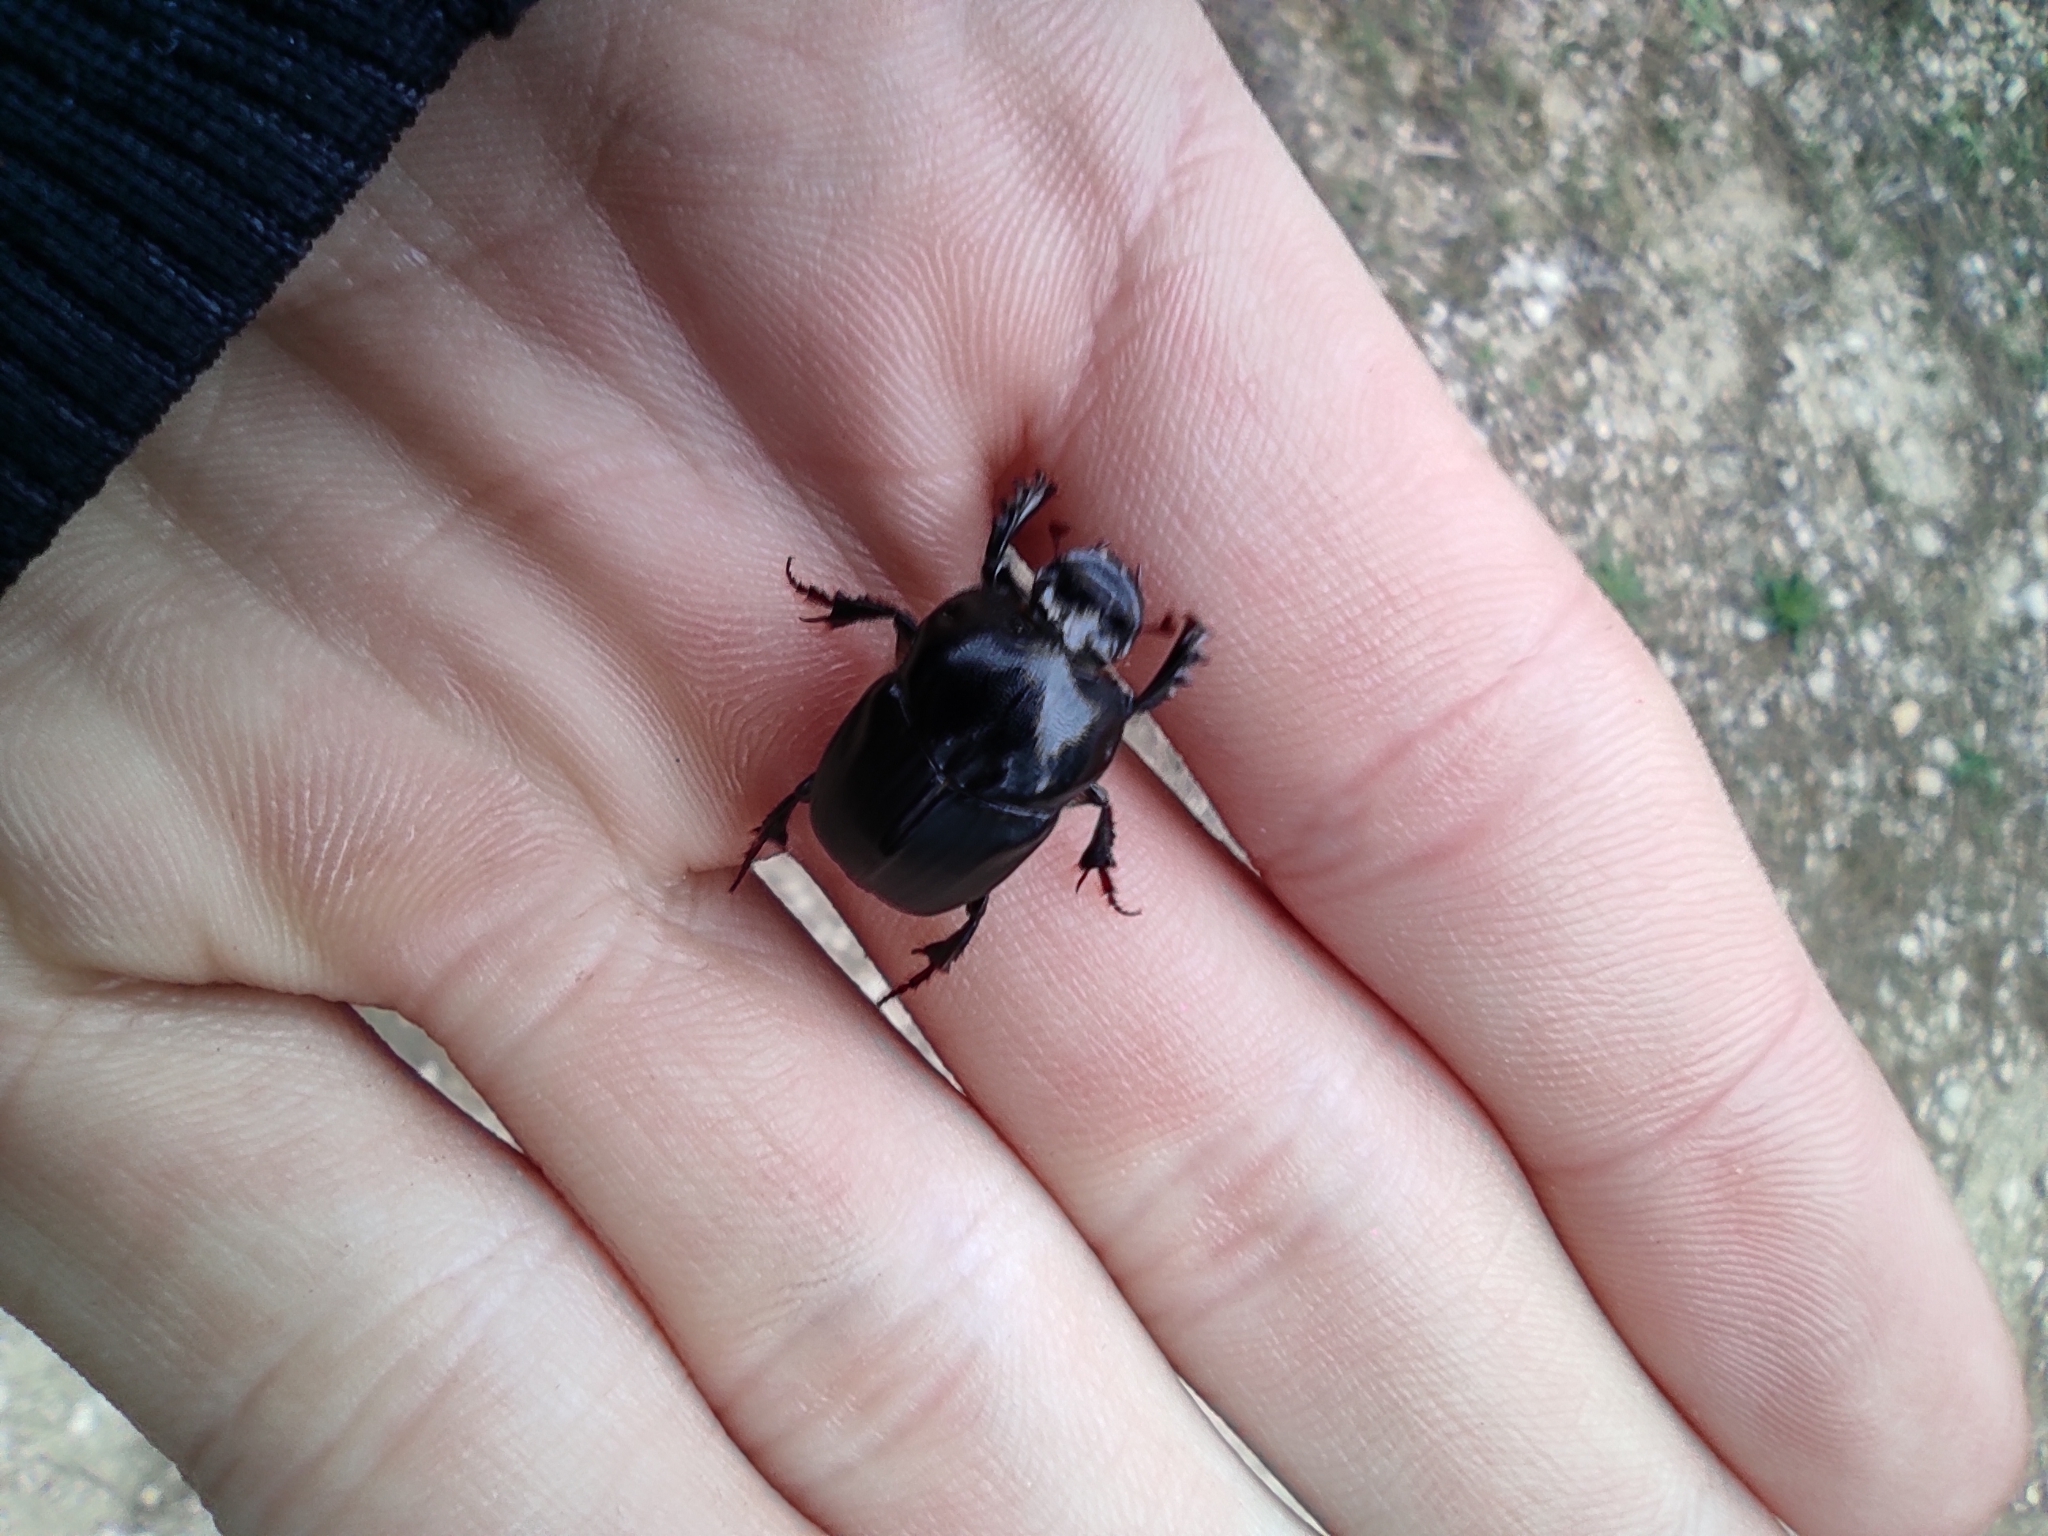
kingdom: Animalia
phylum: Arthropoda
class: Insecta
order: Coleoptera
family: Scarabaeidae
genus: Bubas
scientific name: Bubas bison
